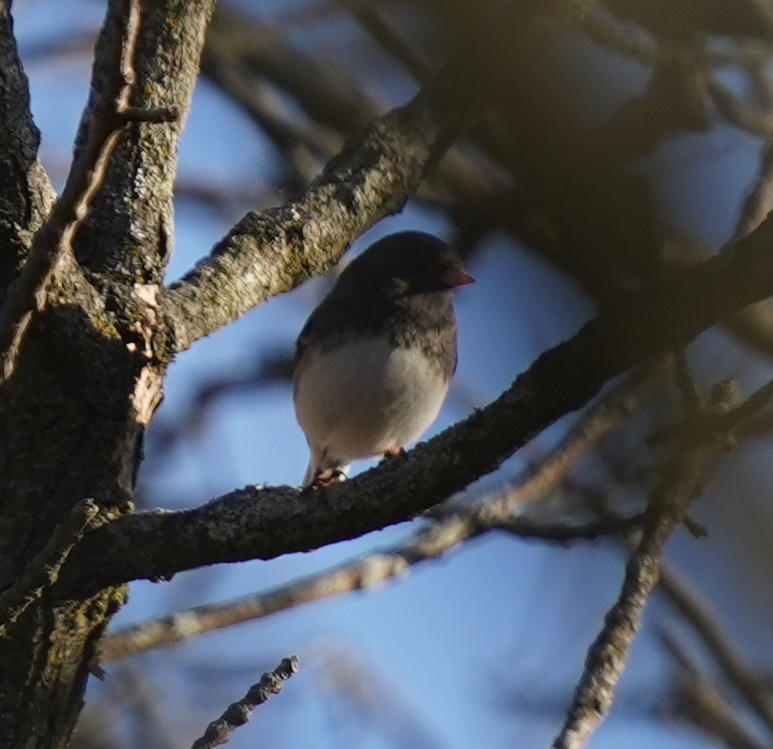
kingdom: Animalia
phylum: Chordata
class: Aves
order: Passeriformes
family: Passerellidae
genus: Junco
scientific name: Junco hyemalis
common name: Dark-eyed junco
